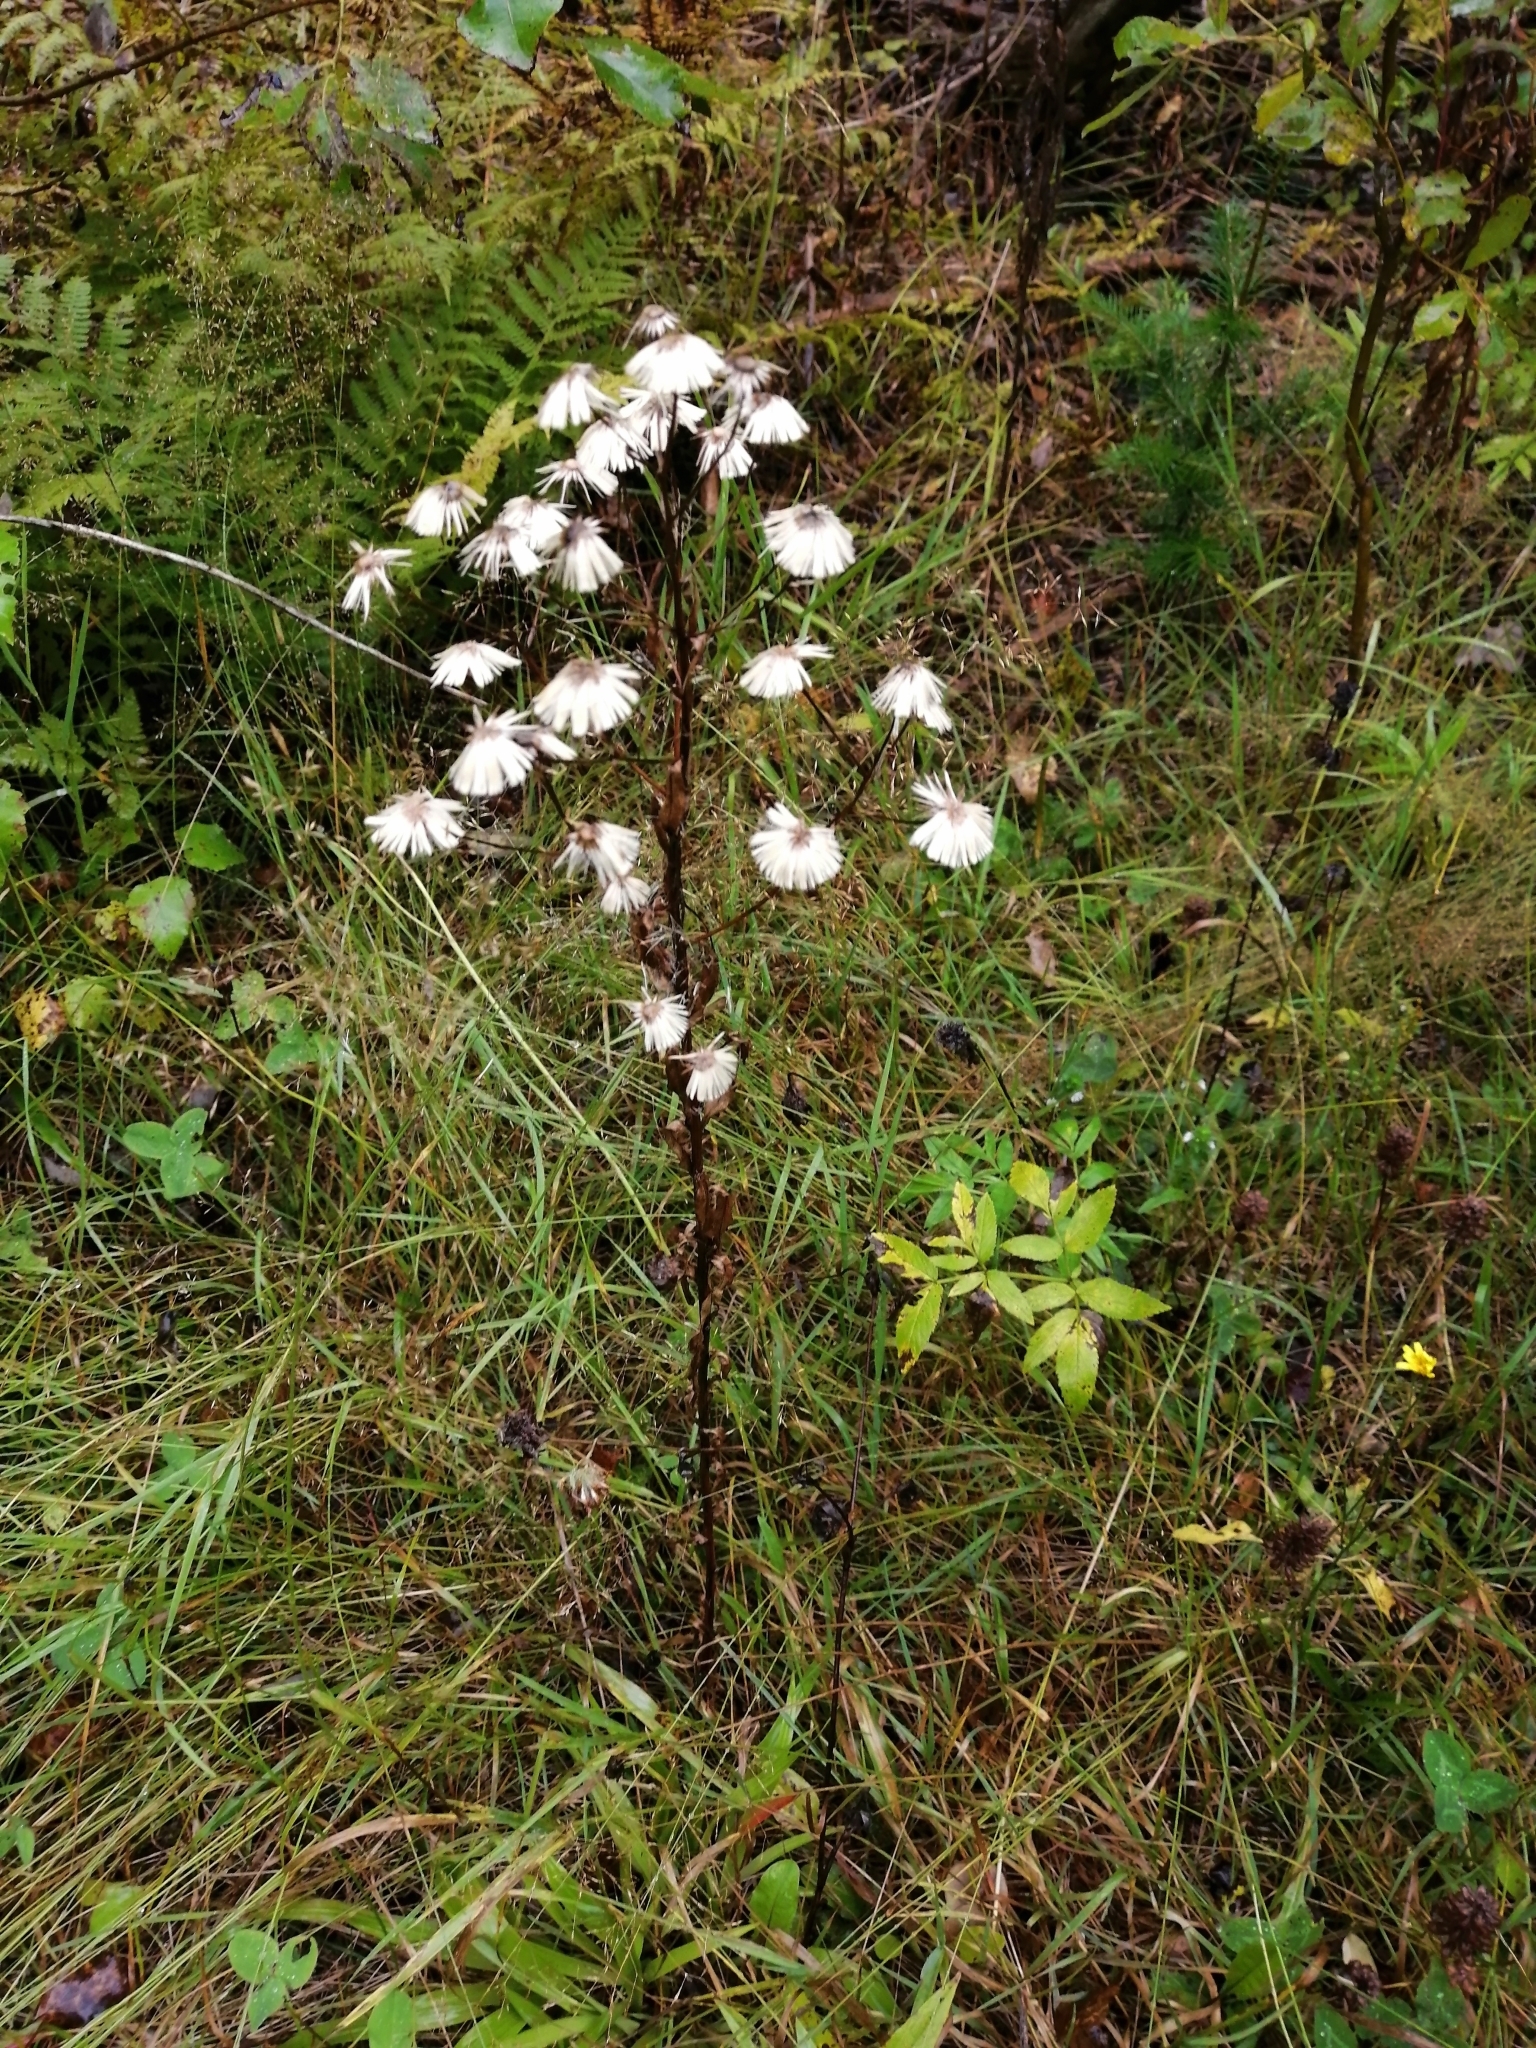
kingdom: Plantae
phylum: Tracheophyta
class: Magnoliopsida
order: Asterales
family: Asteraceae
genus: Erigeron
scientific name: Erigeron acris
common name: Blue fleabane
